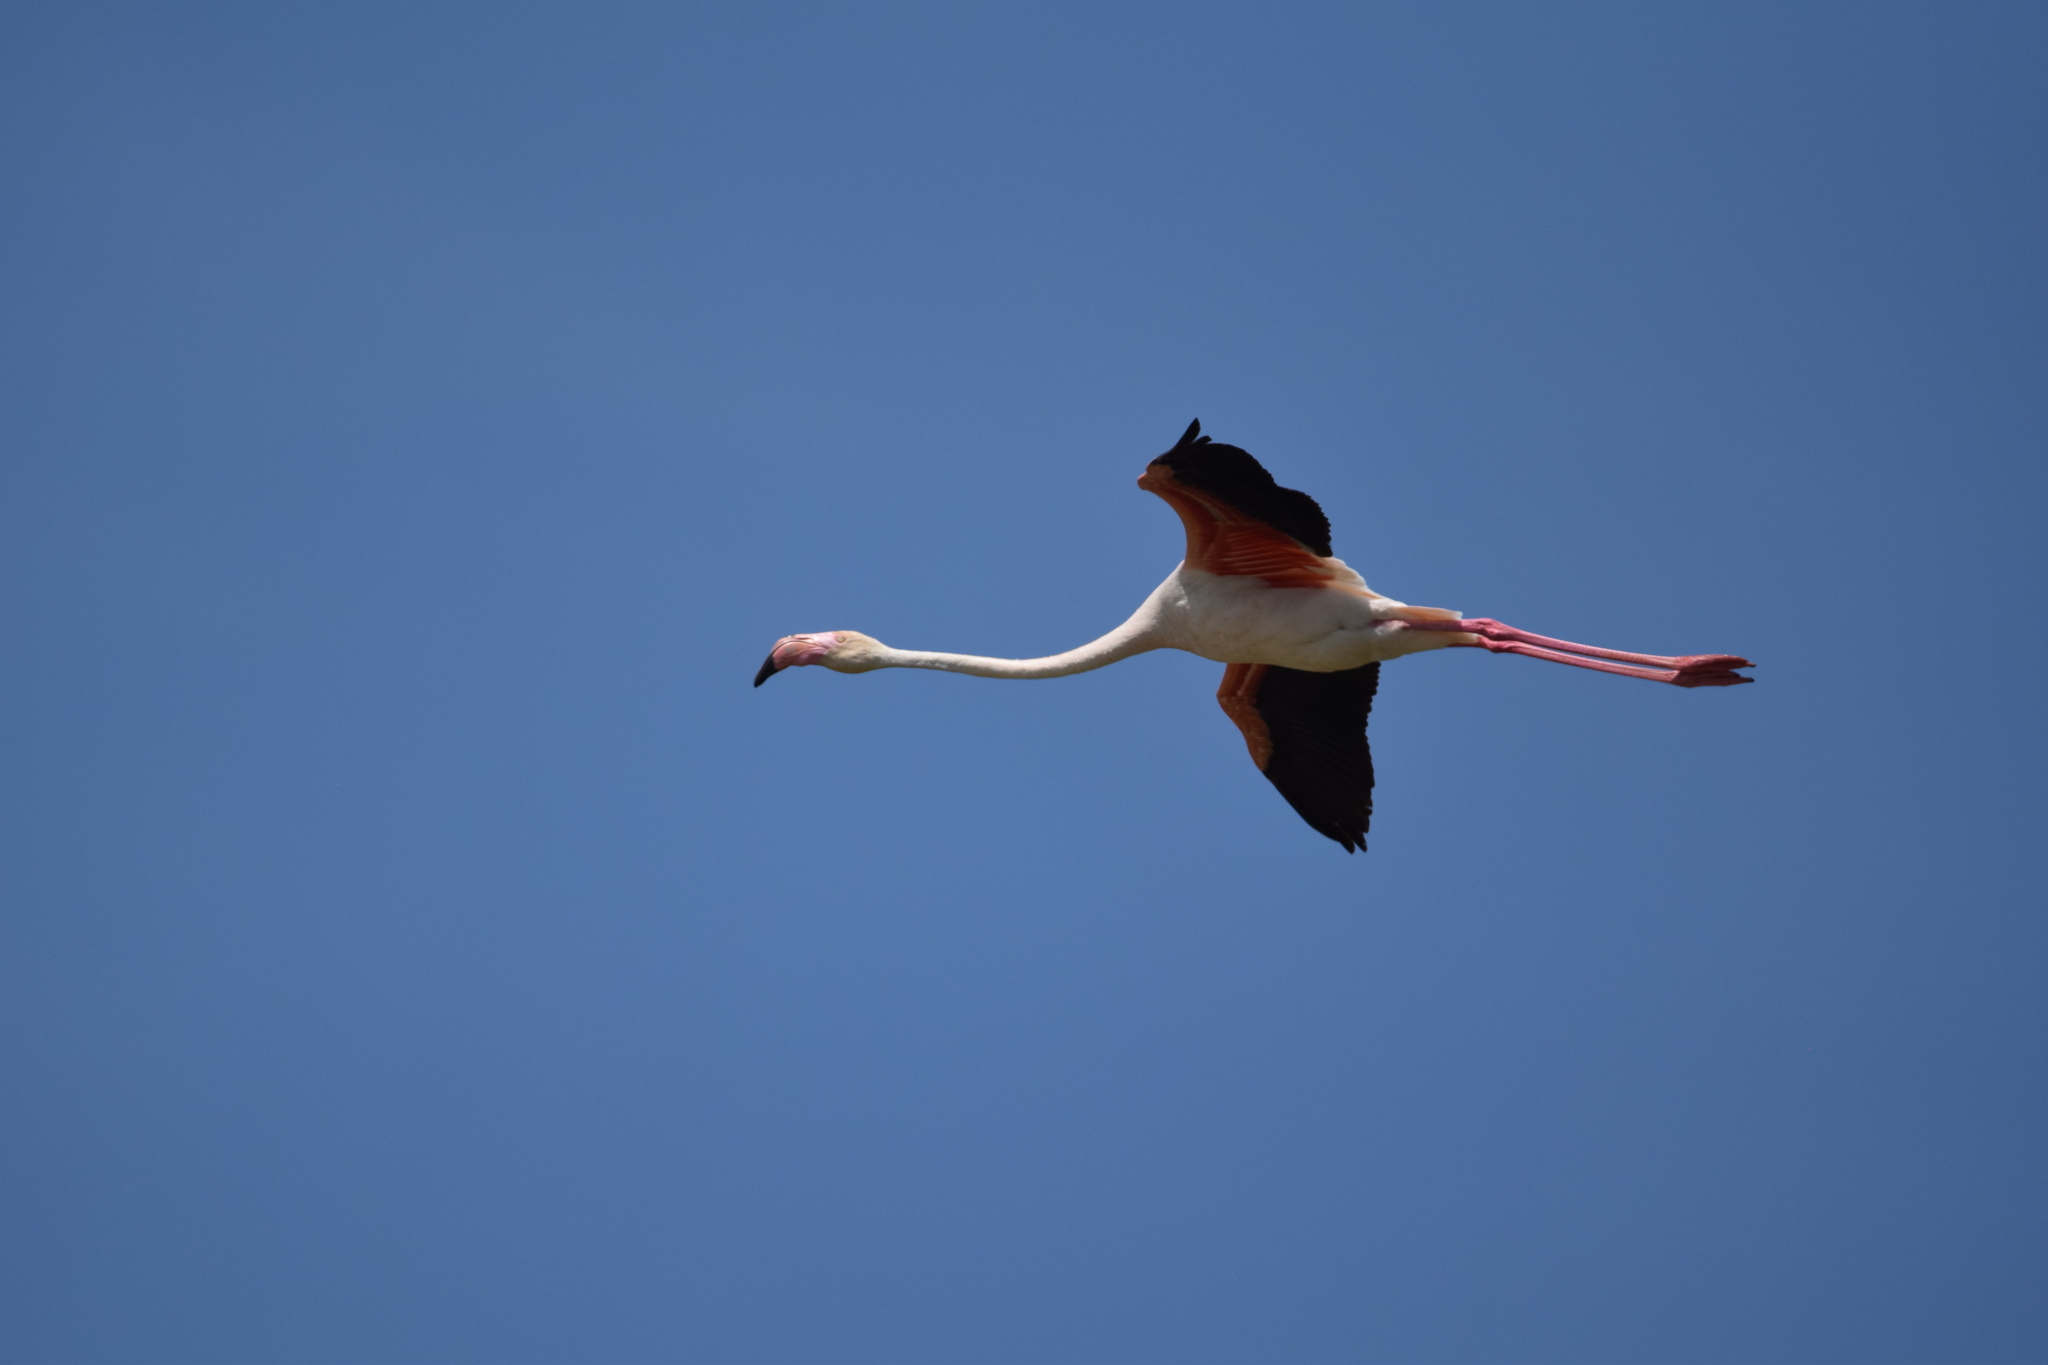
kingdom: Animalia
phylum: Chordata
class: Aves
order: Phoenicopteriformes
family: Phoenicopteridae
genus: Phoenicopterus
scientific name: Phoenicopterus roseus
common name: Greater flamingo
